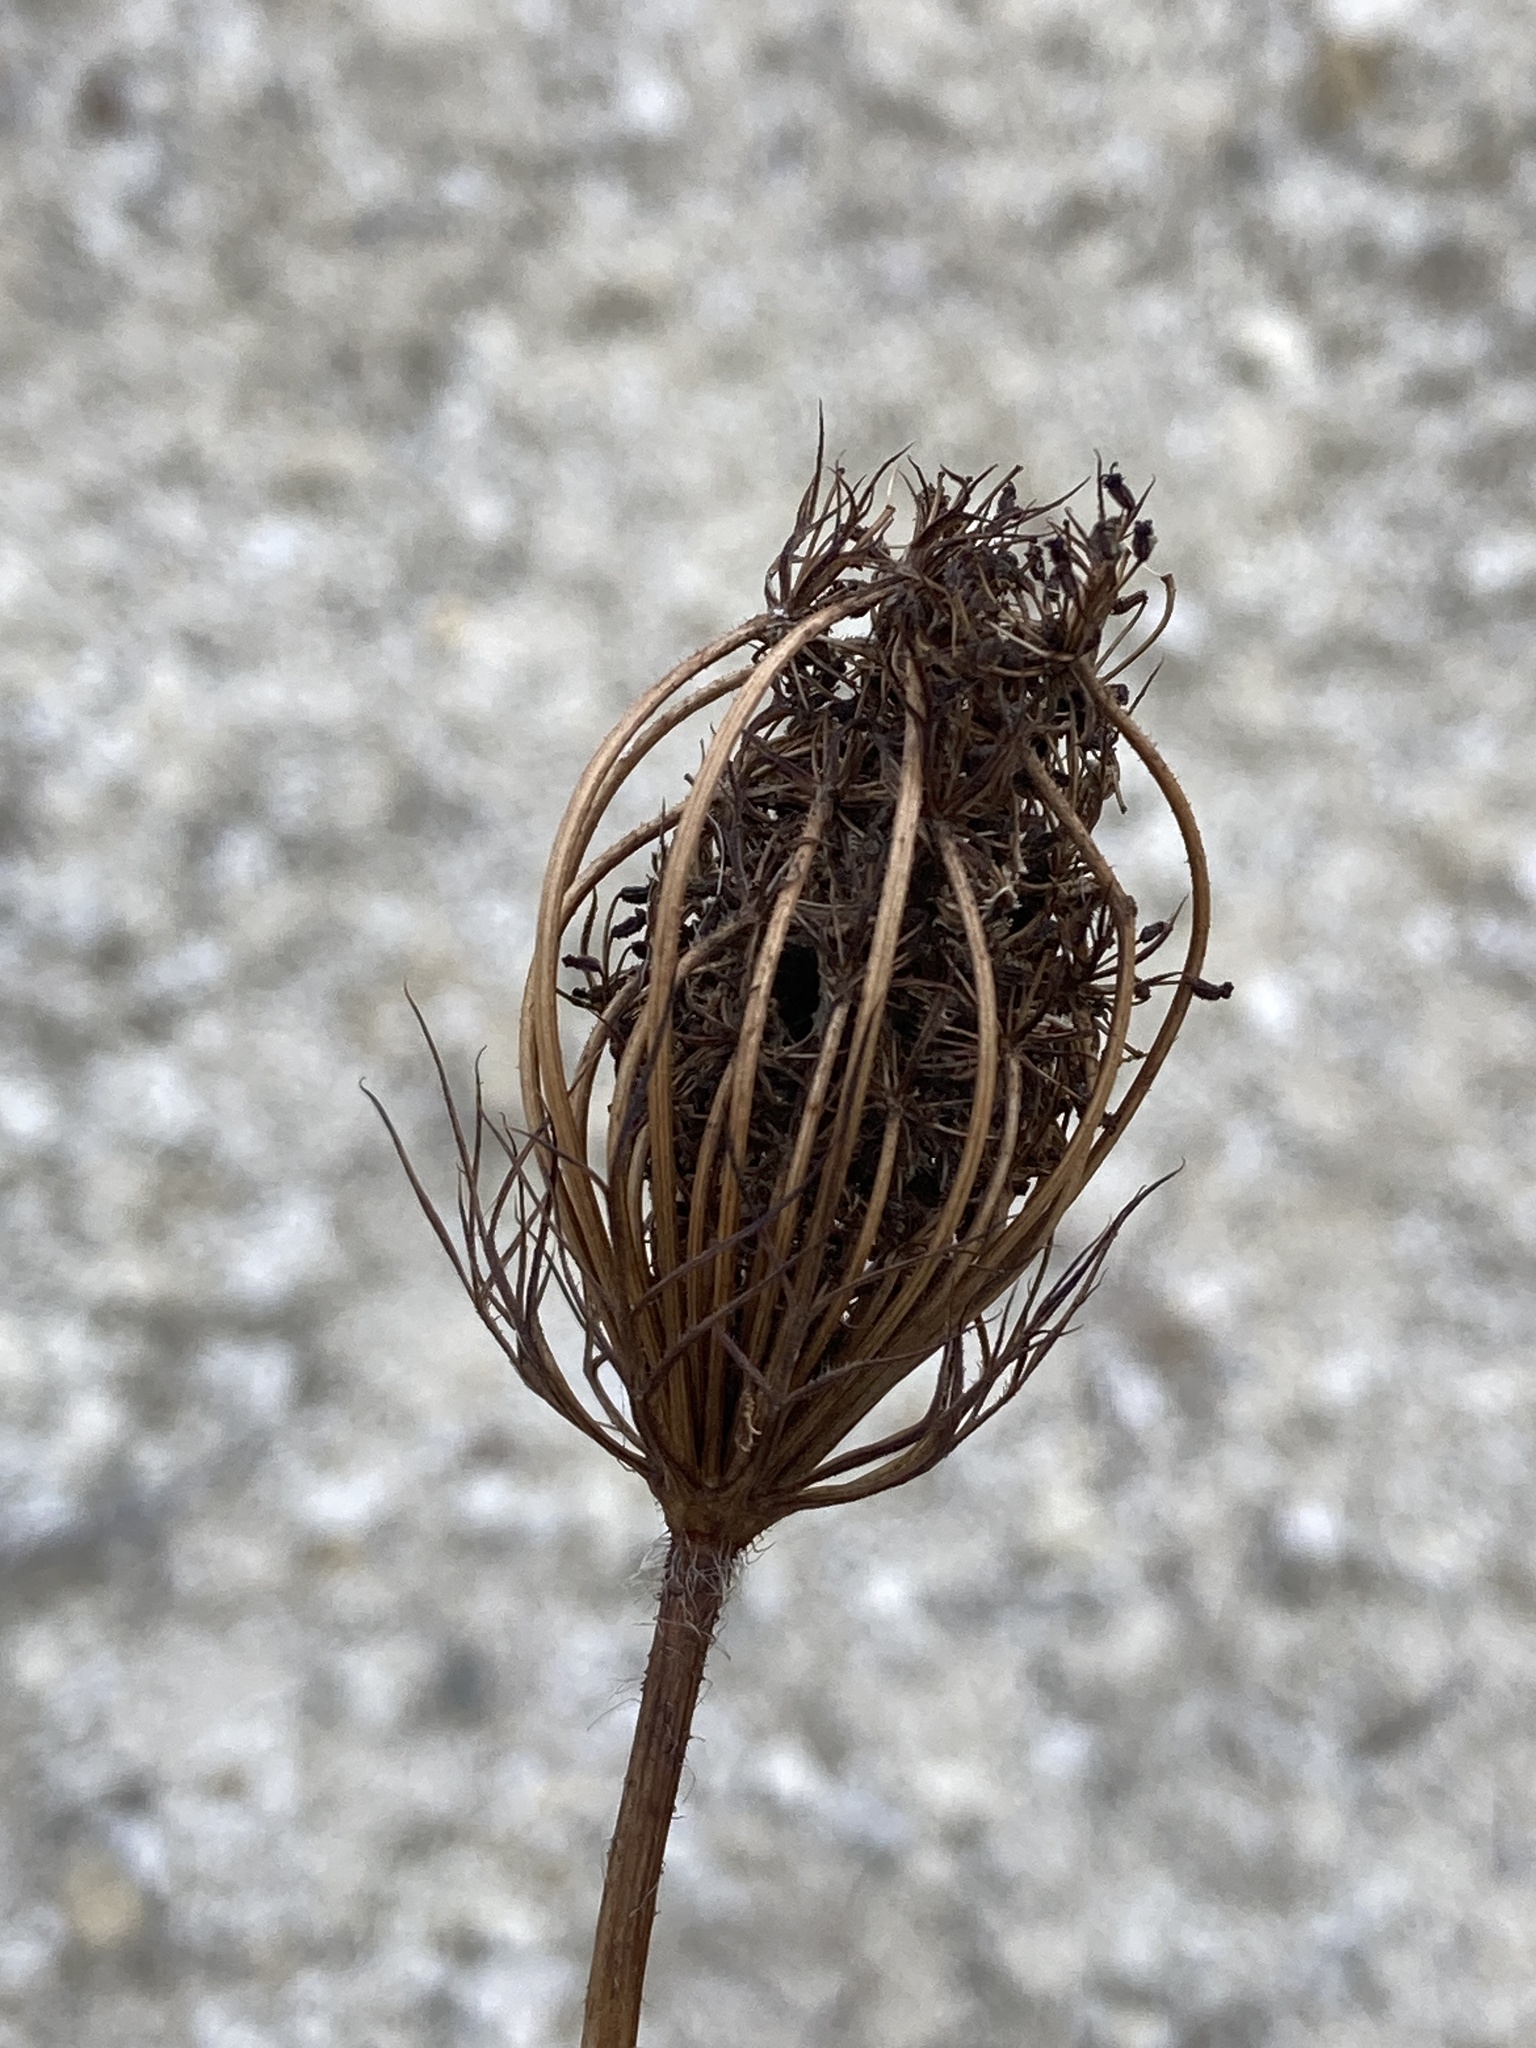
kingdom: Plantae
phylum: Tracheophyta
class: Magnoliopsida
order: Apiales
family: Apiaceae
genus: Daucus
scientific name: Daucus carota
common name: Wild carrot
